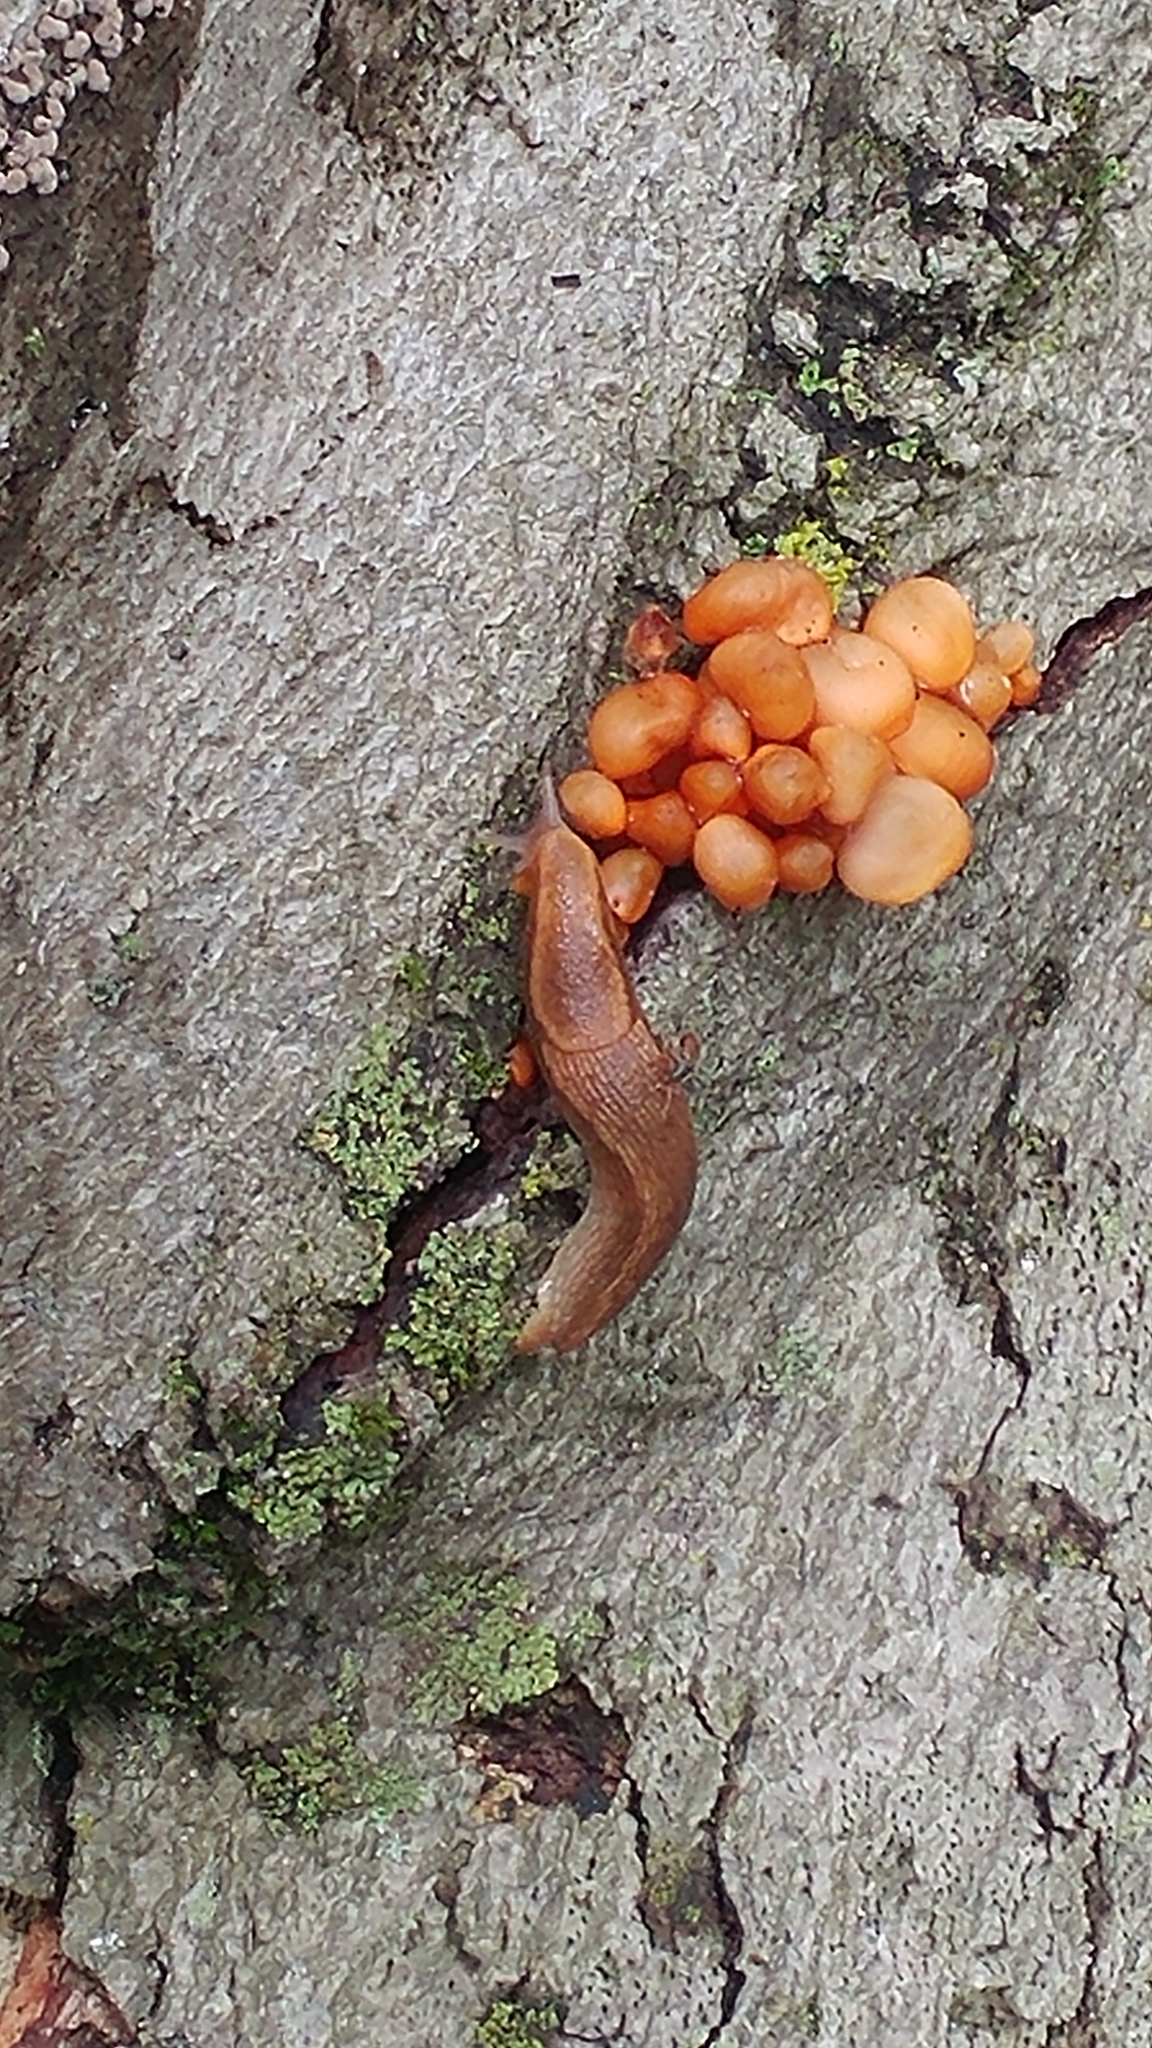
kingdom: Fungi
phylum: Basidiomycota
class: Agaricomycetes
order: Agaricales
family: Mycenaceae
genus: Mycena
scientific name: Mycena leaiana
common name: Orange mycena
